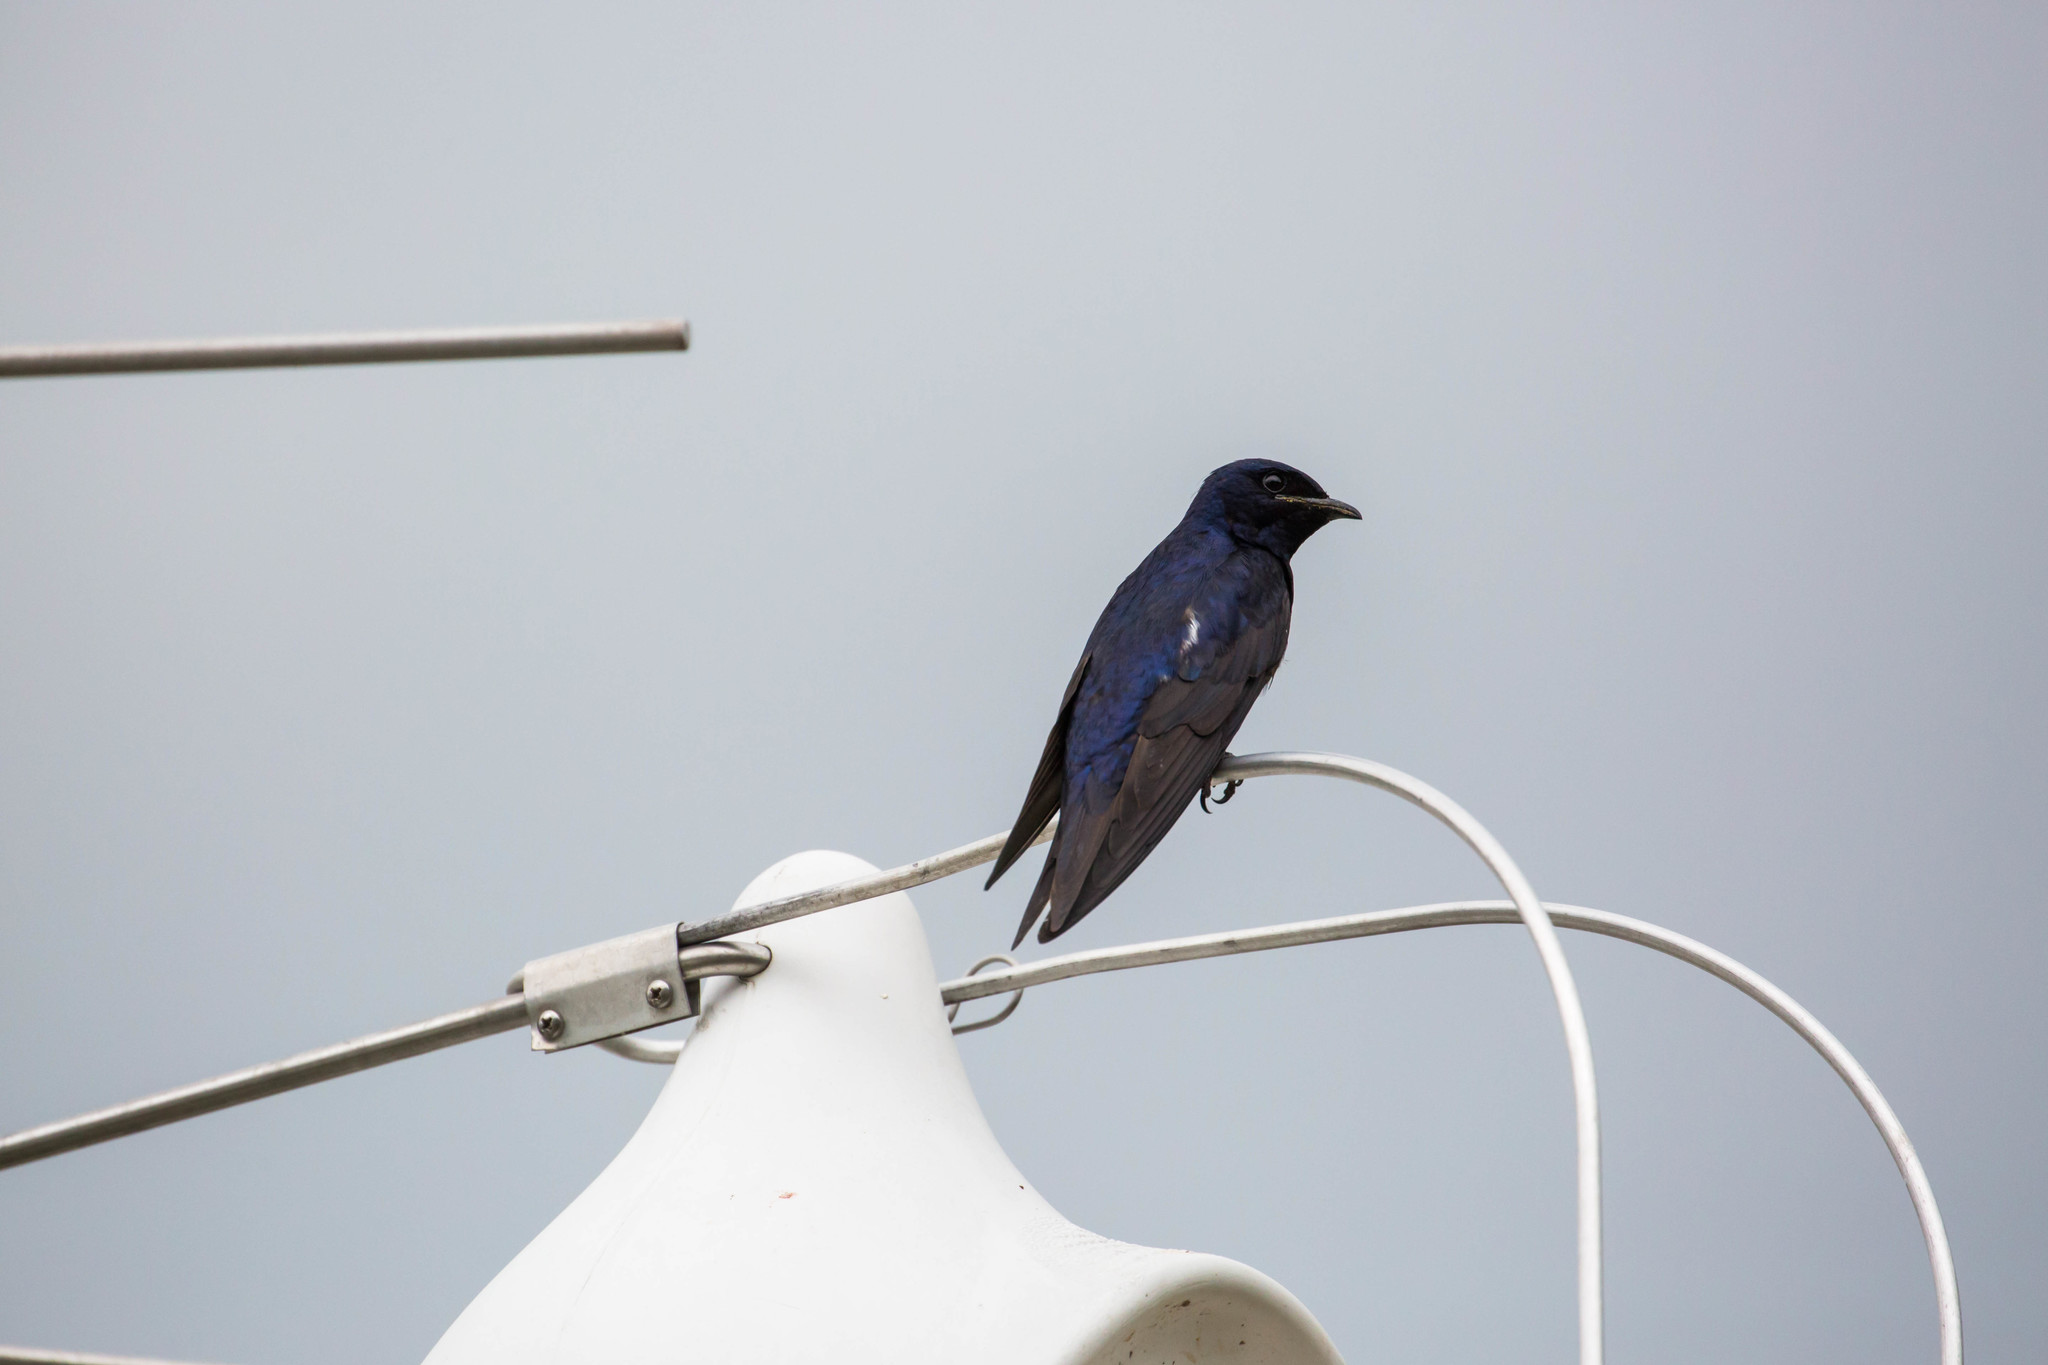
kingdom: Animalia
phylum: Chordata
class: Aves
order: Passeriformes
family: Hirundinidae
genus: Progne
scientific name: Progne subis
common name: Purple martin
